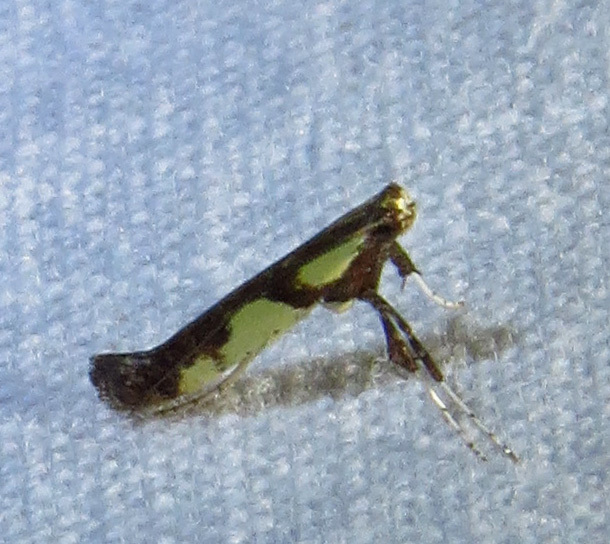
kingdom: Animalia
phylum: Arthropoda
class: Insecta
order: Lepidoptera
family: Gracillariidae
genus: Caloptilia
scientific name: Caloptilia blandella
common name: Walnut caloptilia moth
